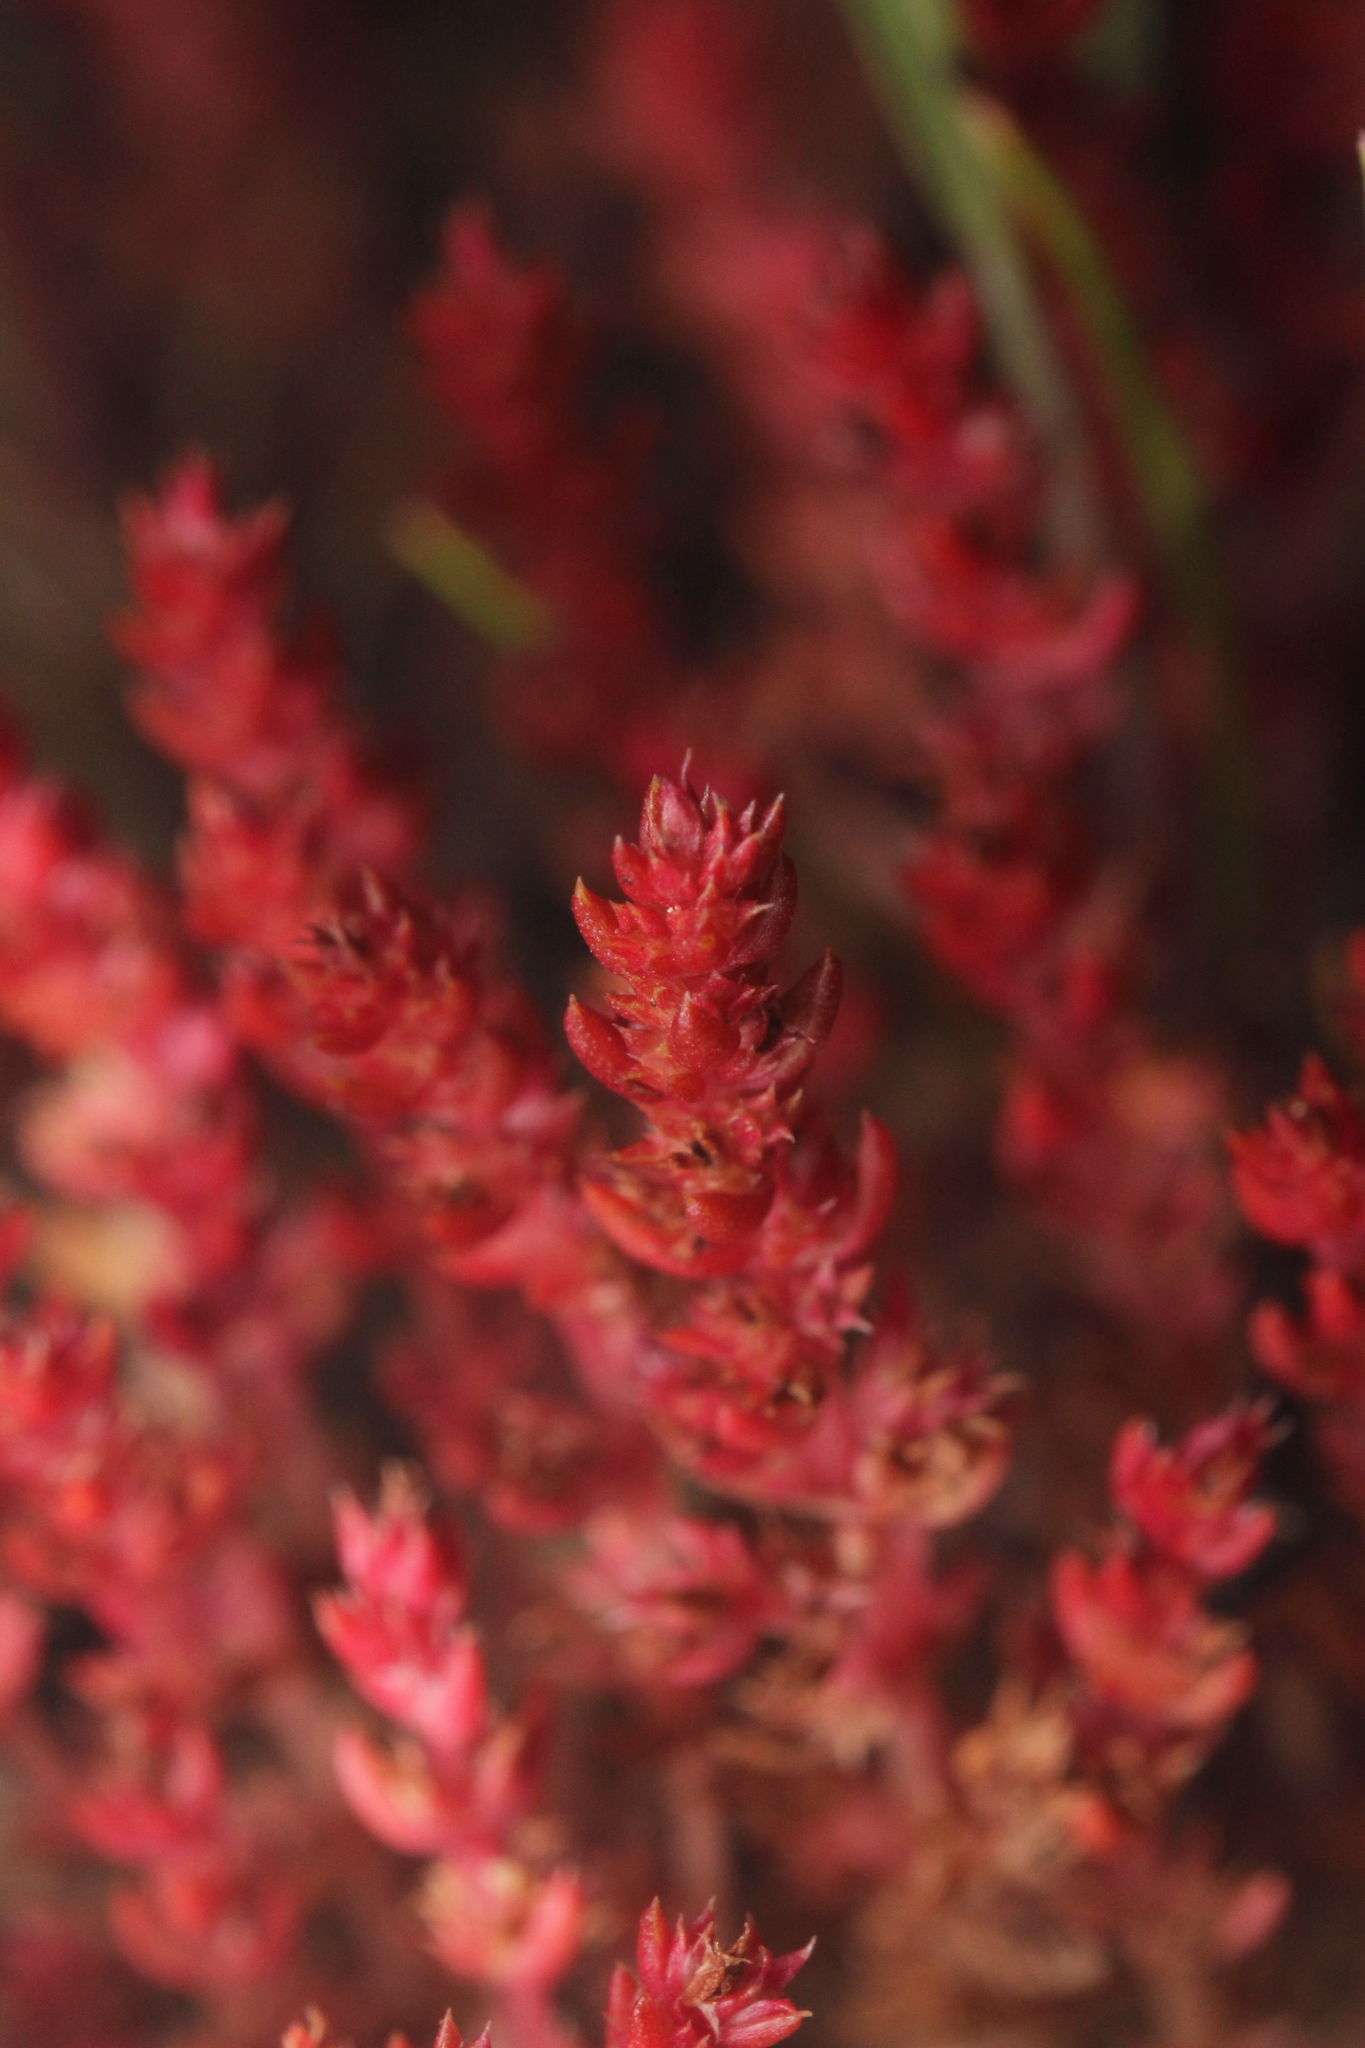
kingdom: Plantae
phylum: Tracheophyta
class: Magnoliopsida
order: Saxifragales
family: Crassulaceae
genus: Crassula
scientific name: Crassula tillaea
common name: Mossy stonecrop
